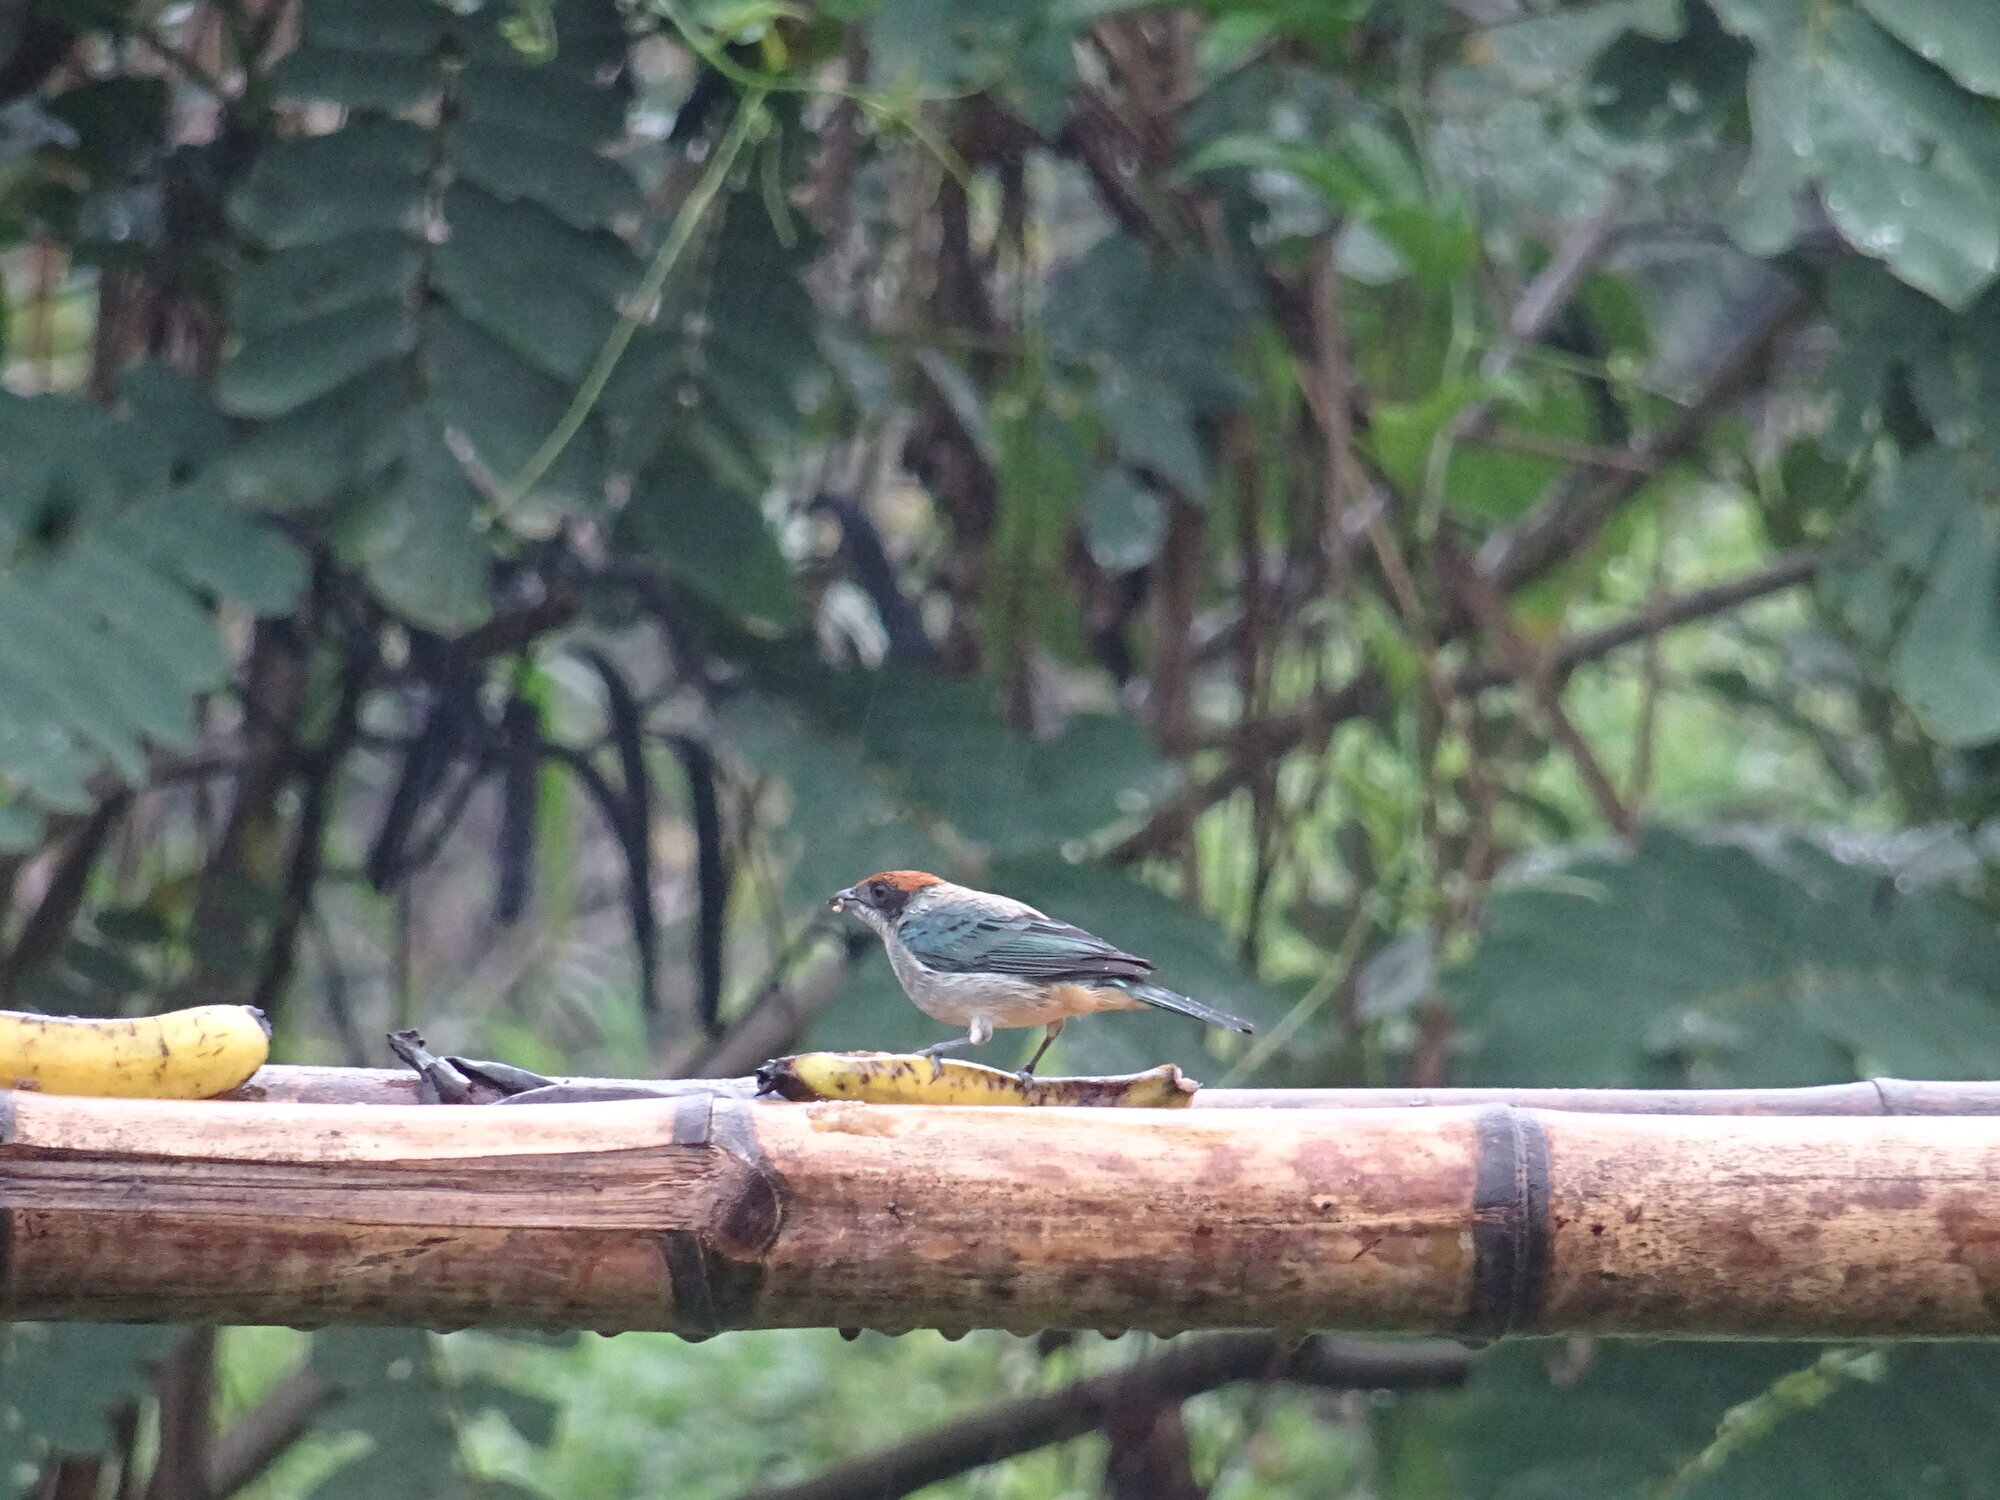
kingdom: Animalia
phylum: Chordata
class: Aves
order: Passeriformes
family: Thraupidae
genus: Stilpnia
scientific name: Stilpnia vitriolina
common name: Scrub tanager
